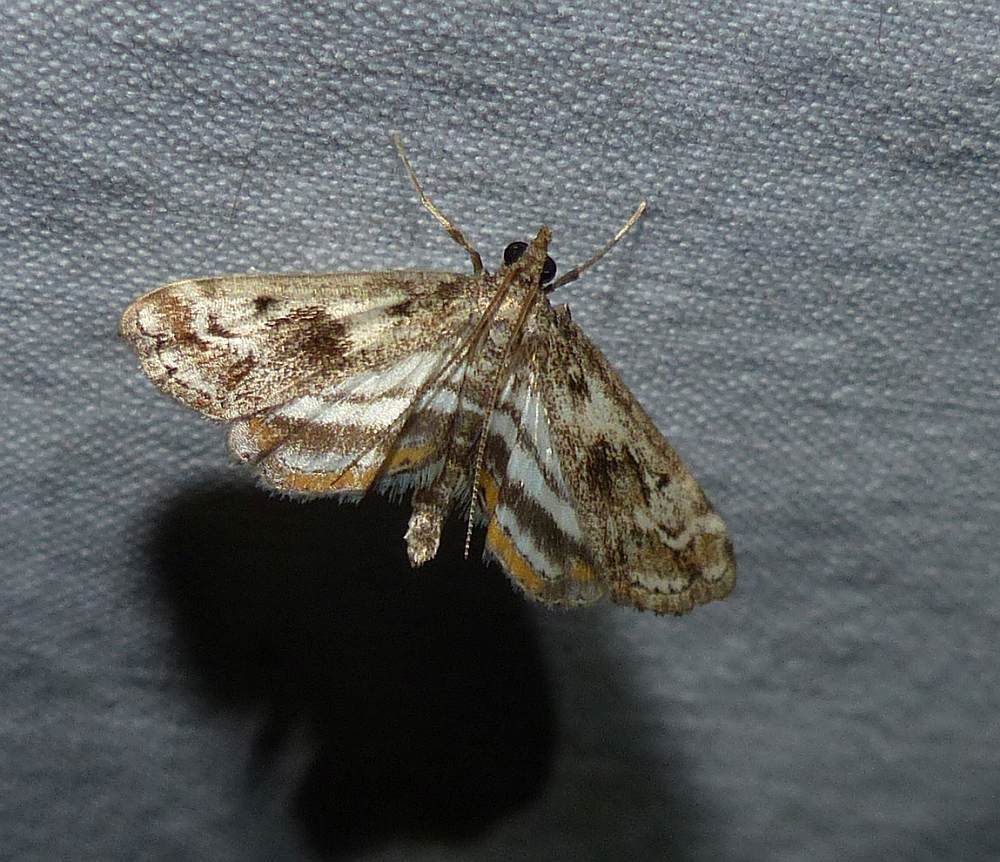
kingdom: Animalia
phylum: Arthropoda
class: Insecta
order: Lepidoptera
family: Crambidae
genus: Parapoynx
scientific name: Parapoynx obscuralis
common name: American china-mark
